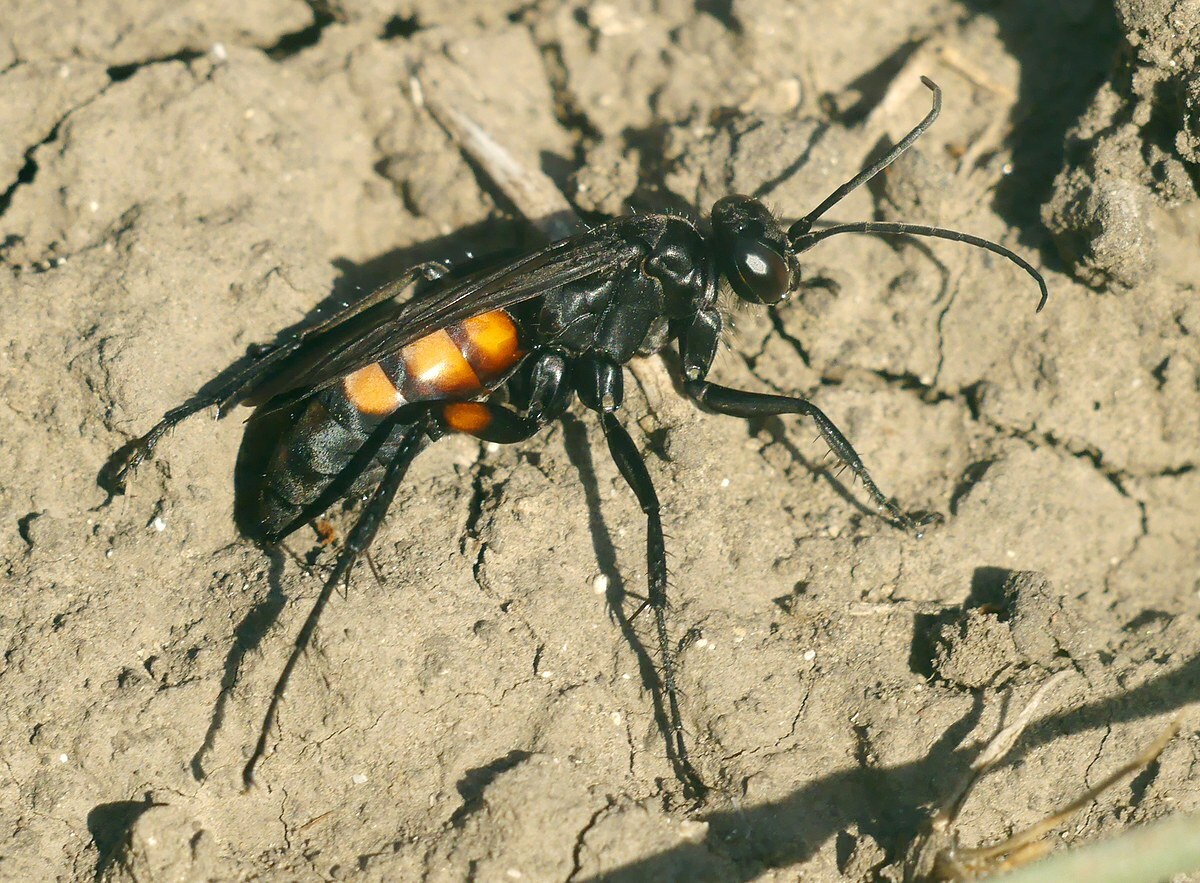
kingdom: Animalia
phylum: Arthropoda
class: Insecta
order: Hymenoptera
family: Pompilidae
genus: Anoplius
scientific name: Anoplius viaticus
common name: Black banded spider wasp
